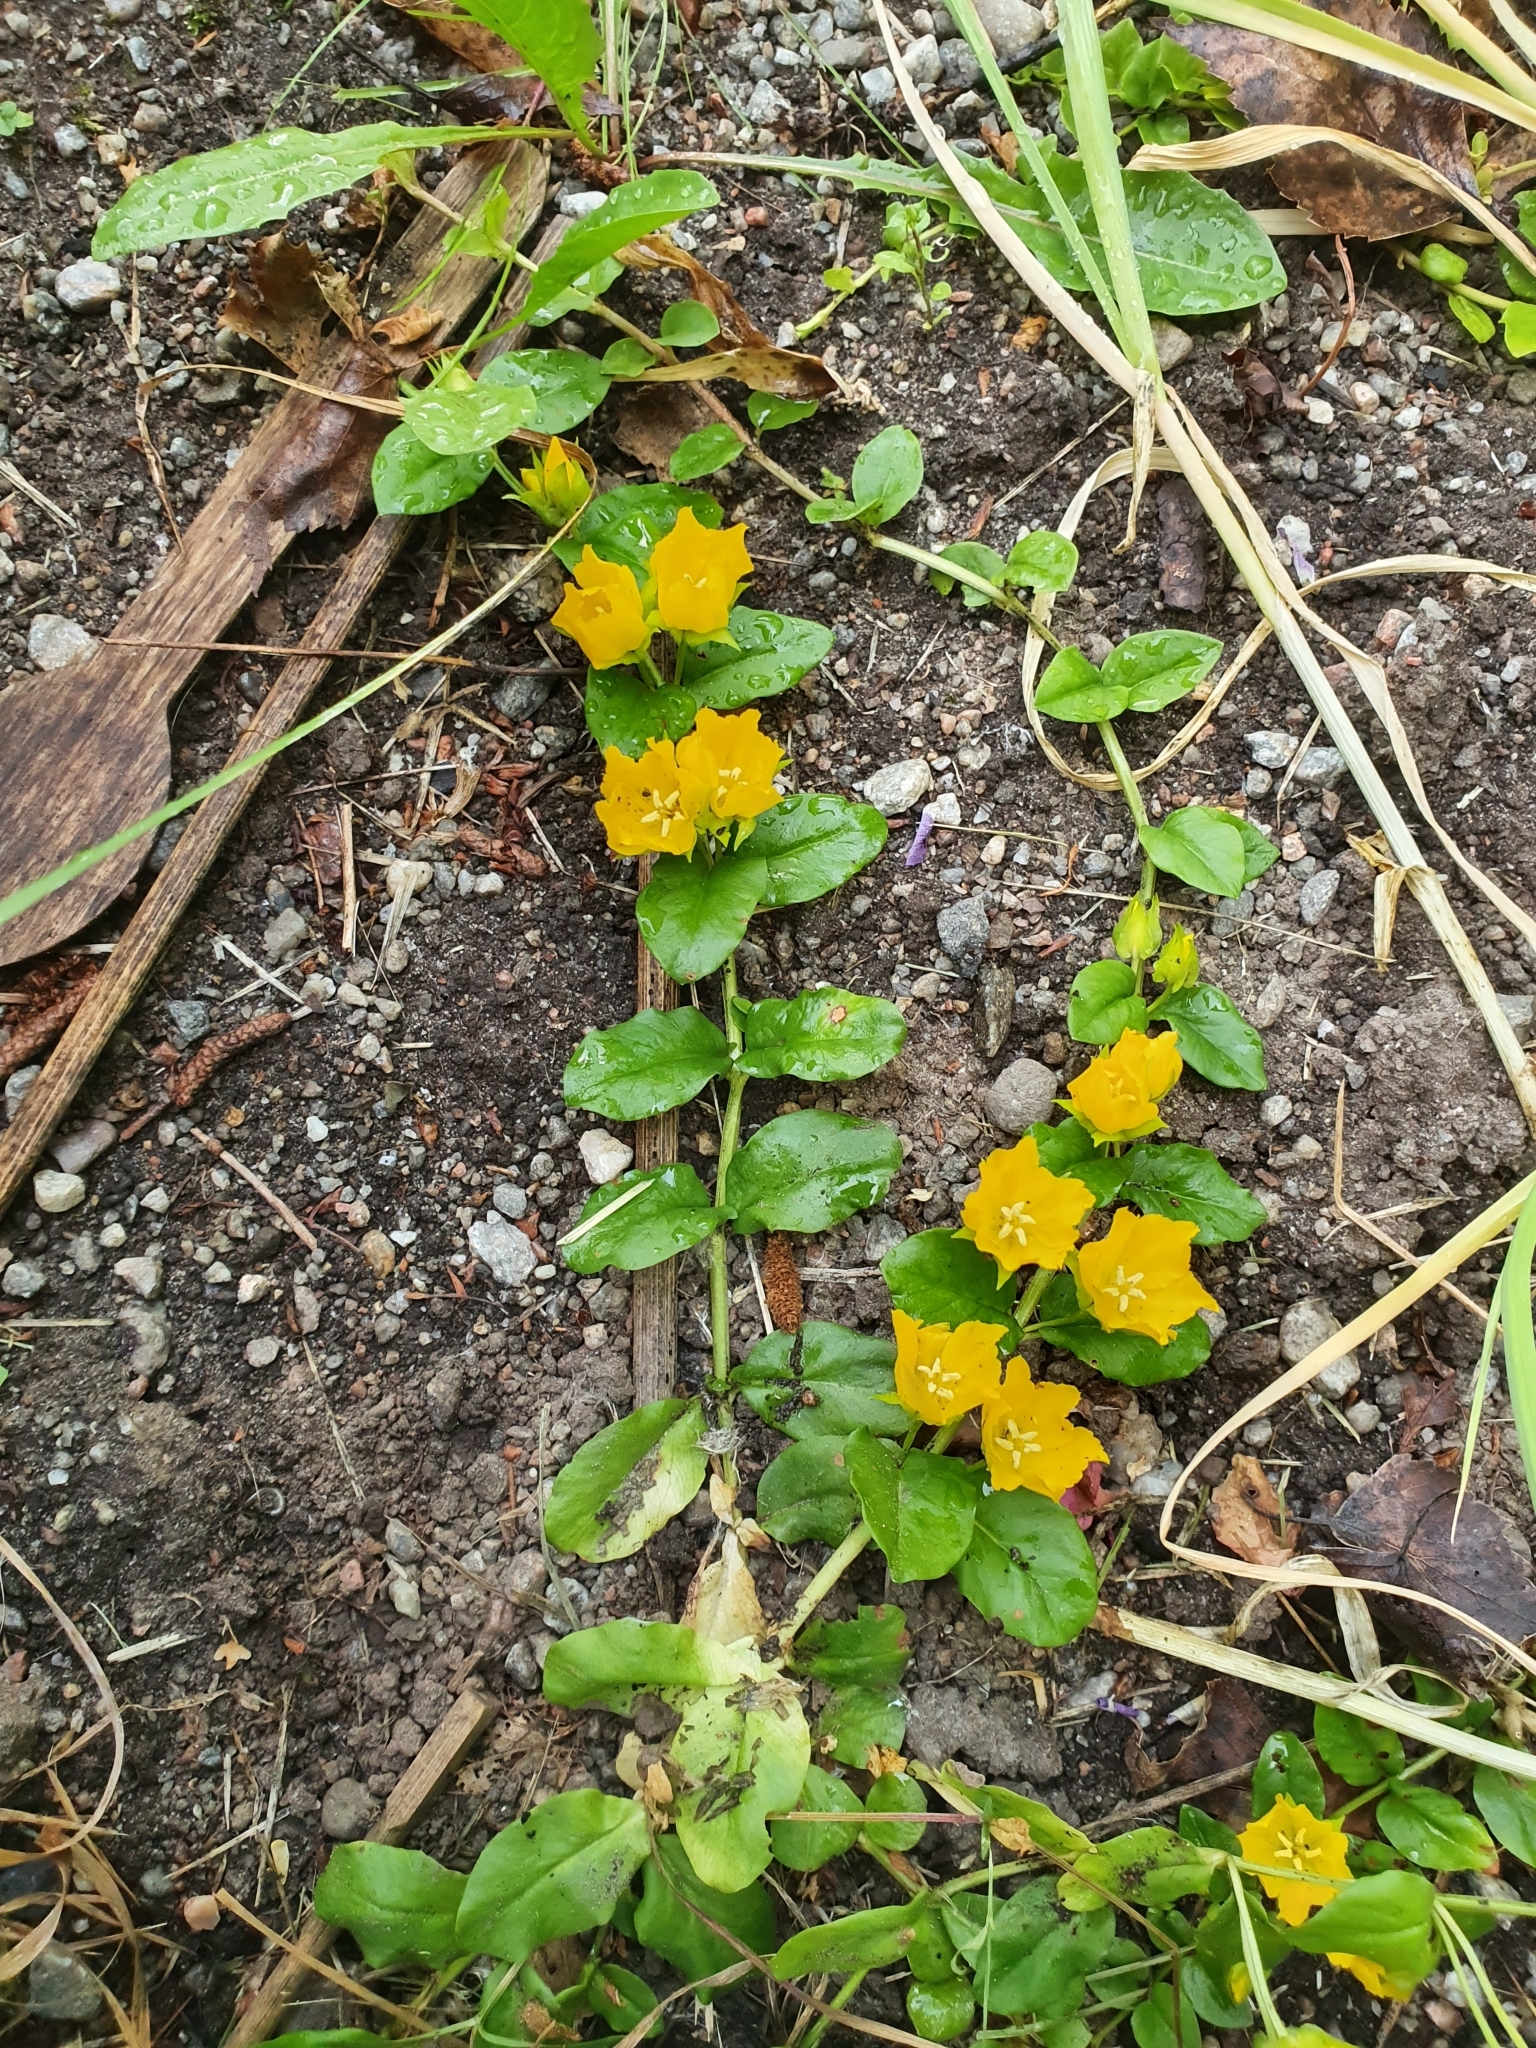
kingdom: Plantae
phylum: Tracheophyta
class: Magnoliopsida
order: Ericales
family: Primulaceae
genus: Lysimachia
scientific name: Lysimachia nummularia
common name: Moneywort
